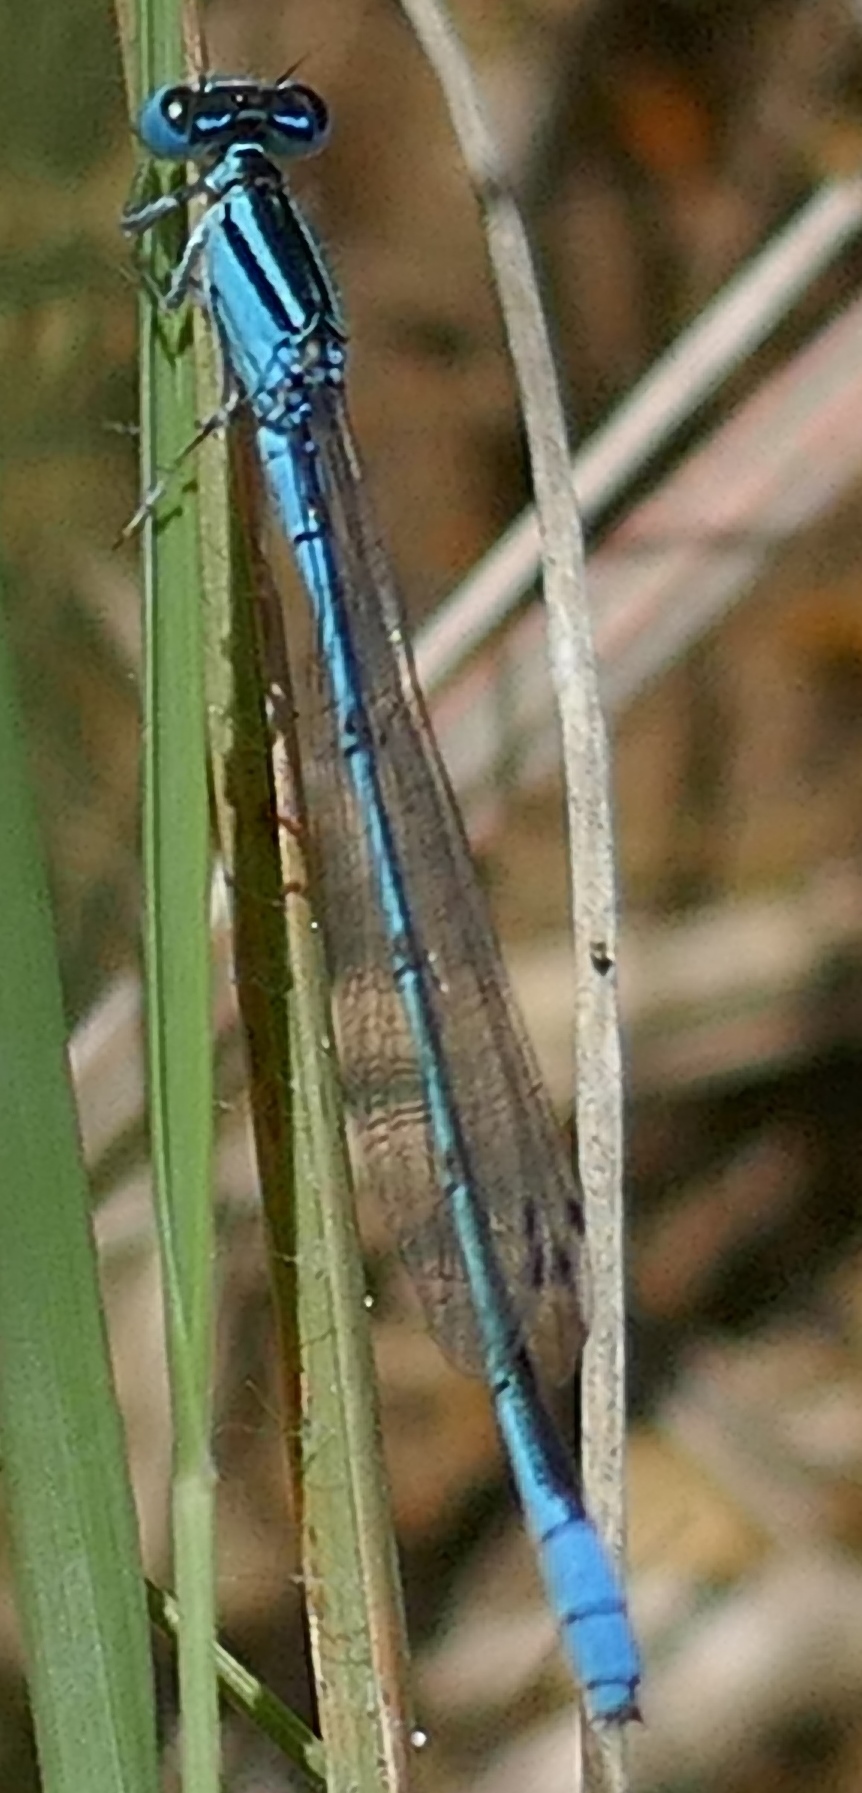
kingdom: Animalia
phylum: Arthropoda
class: Insecta
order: Odonata
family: Coenagrionidae
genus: Africallagma
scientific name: Africallagma glaucum
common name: Swamp bluet
